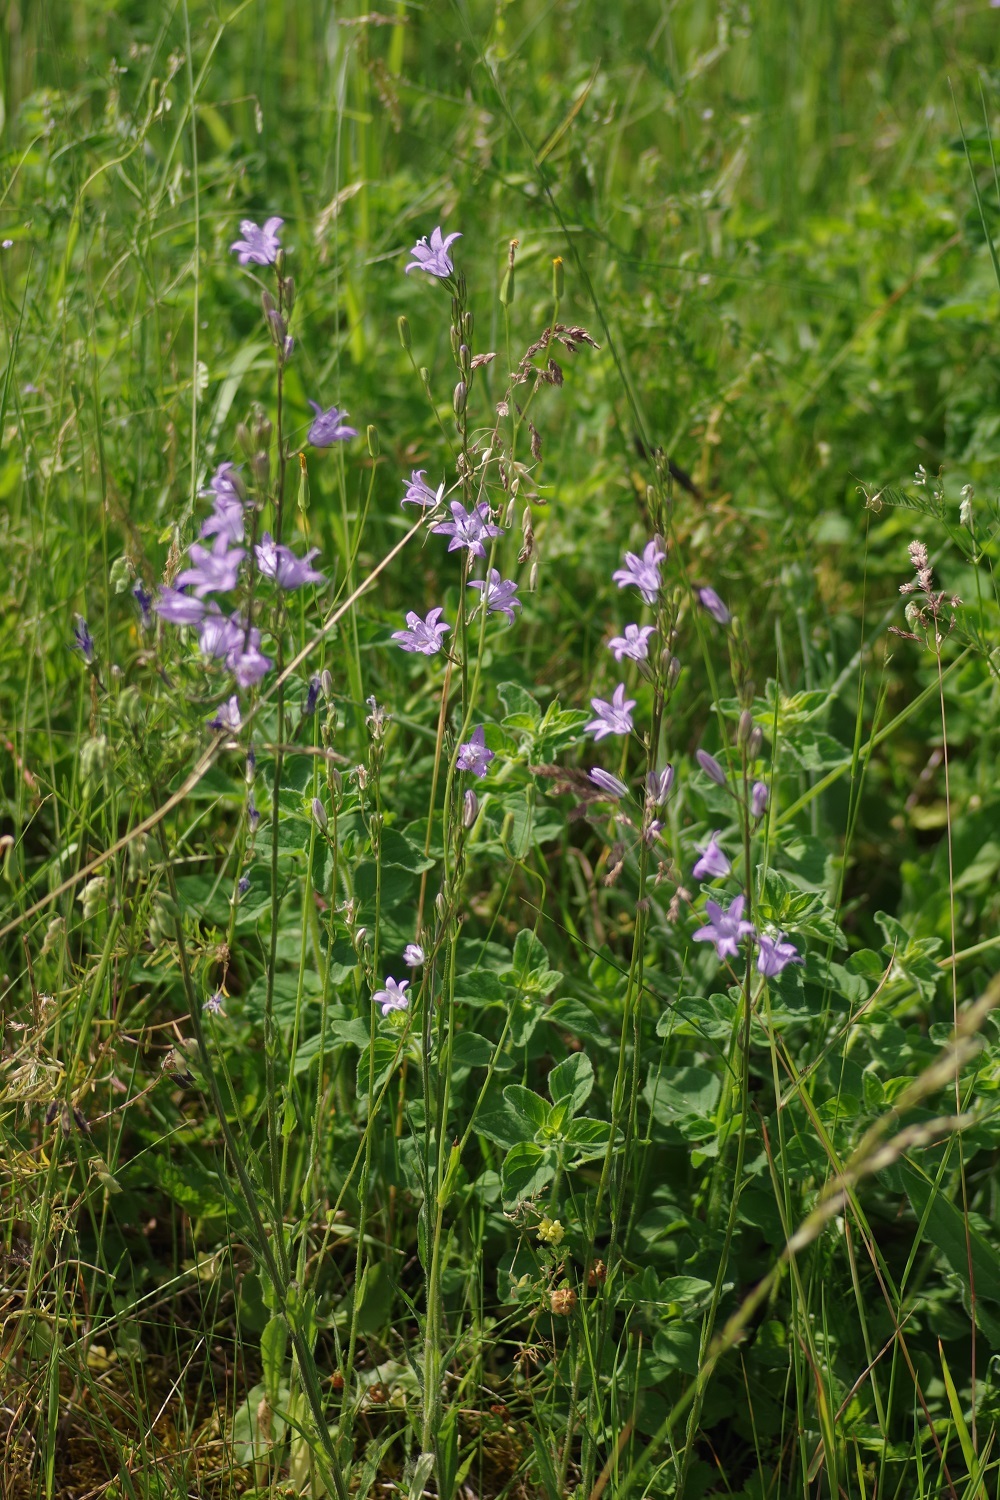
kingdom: Plantae
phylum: Tracheophyta
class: Magnoliopsida
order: Asterales
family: Campanulaceae
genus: Campanula
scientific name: Campanula rapunculus
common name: Rampion bellflower
